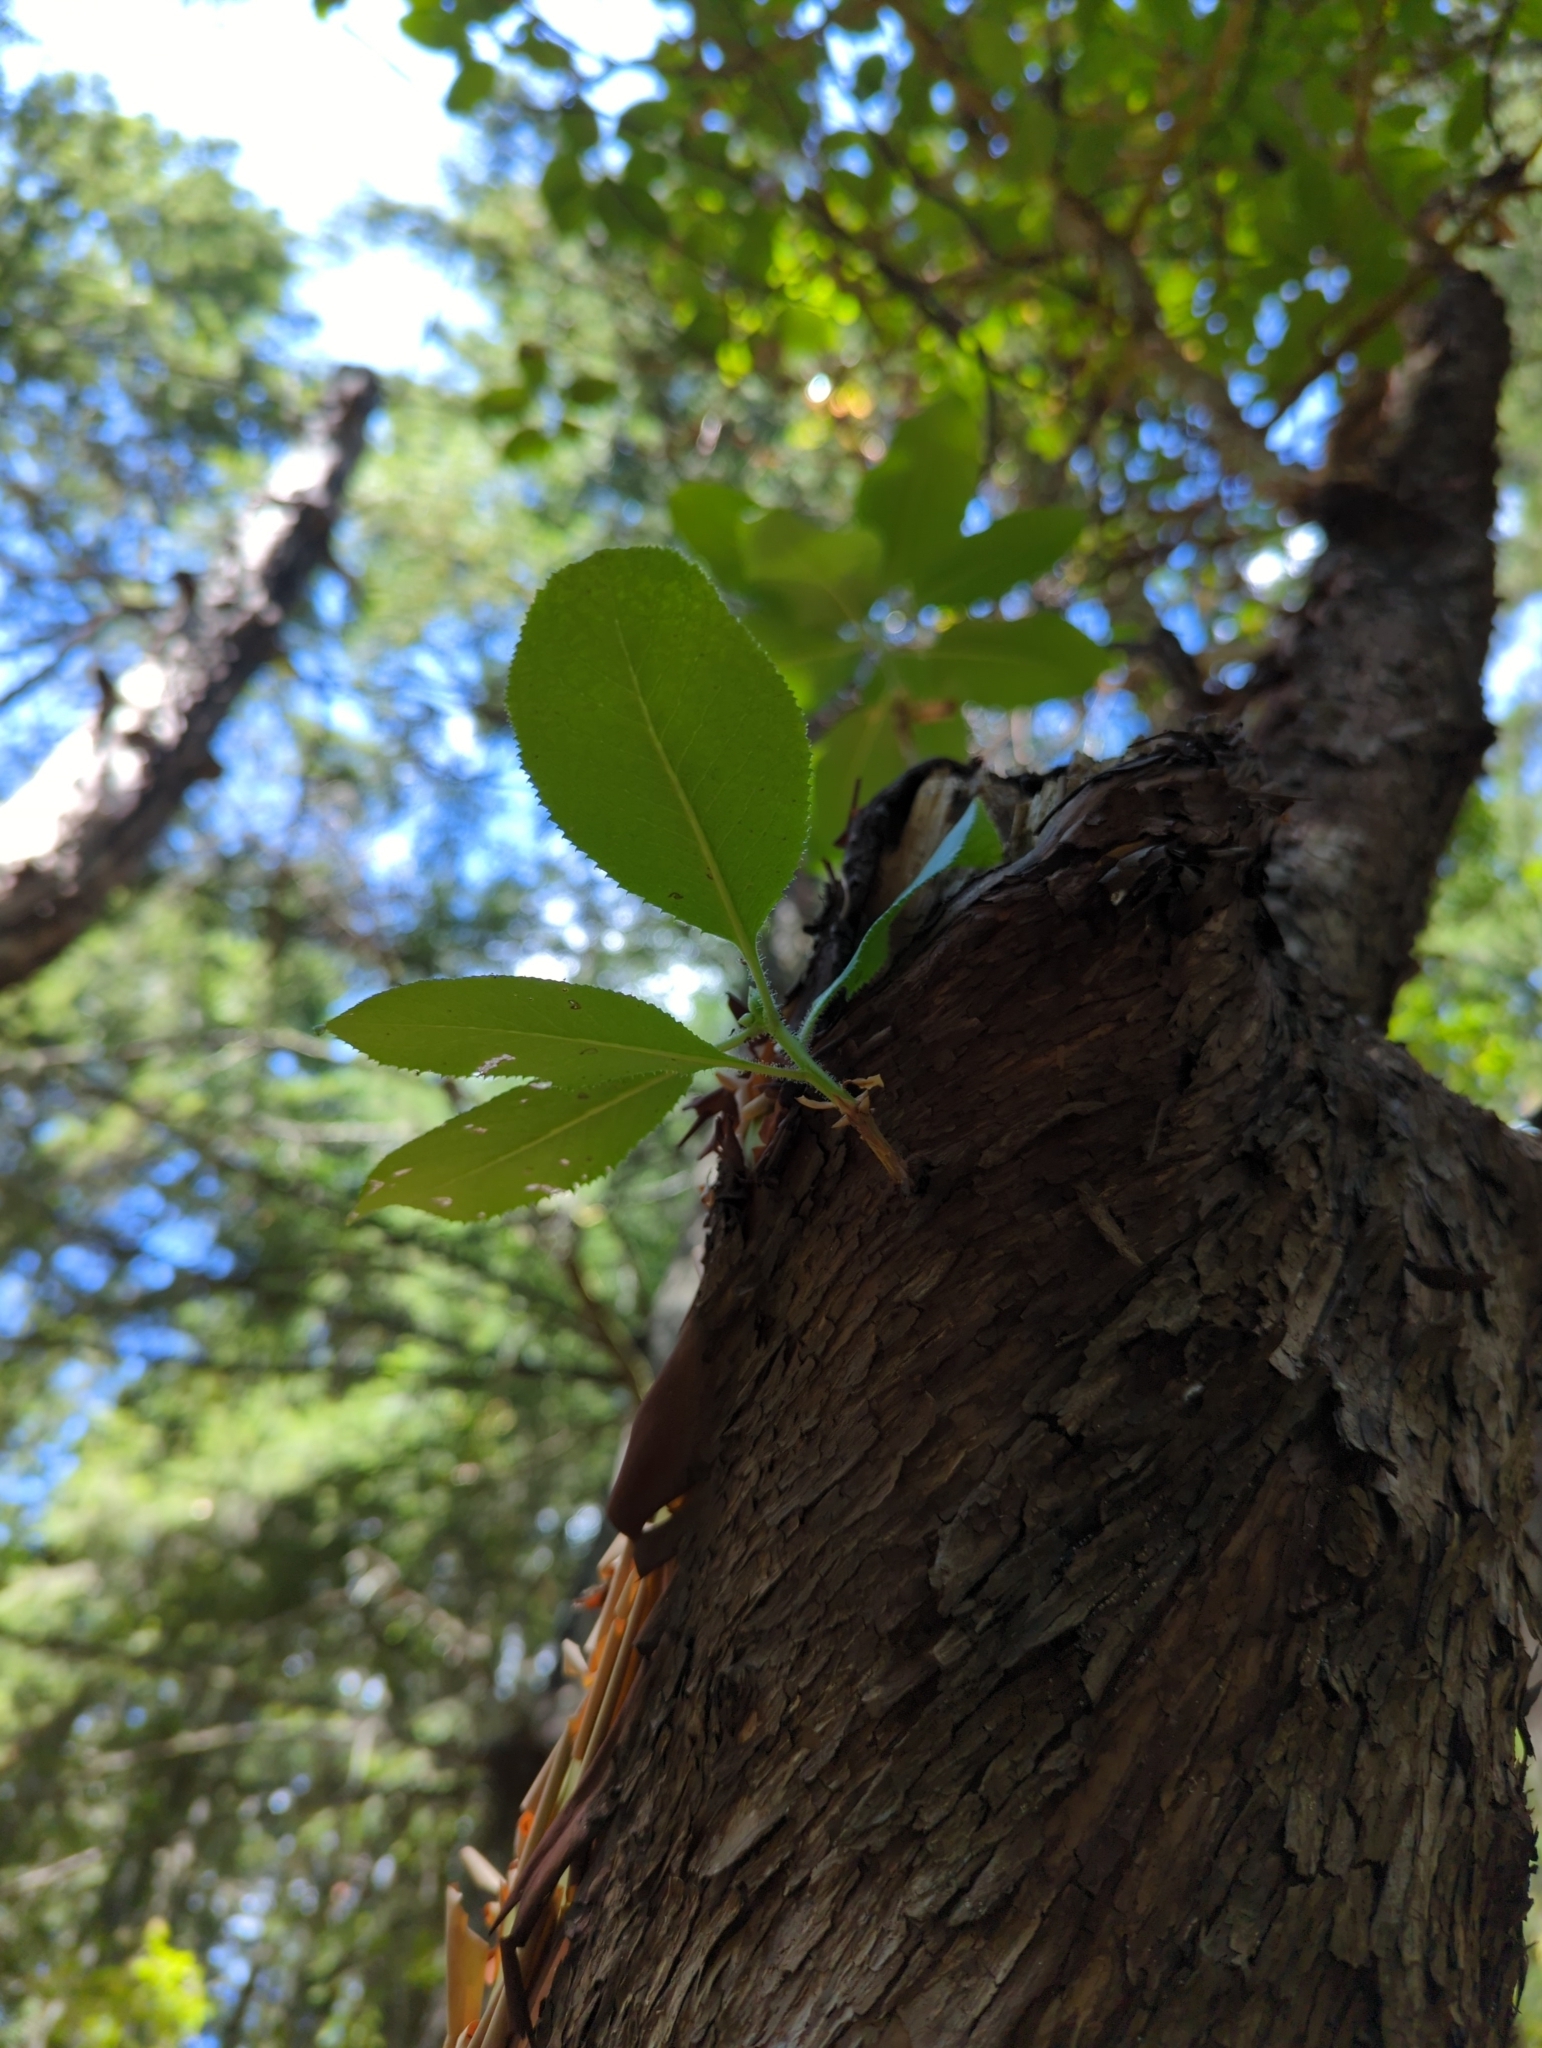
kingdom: Plantae
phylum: Tracheophyta
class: Magnoliopsida
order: Ericales
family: Ericaceae
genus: Arbutus
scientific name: Arbutus menziesii
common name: Pacific madrone
